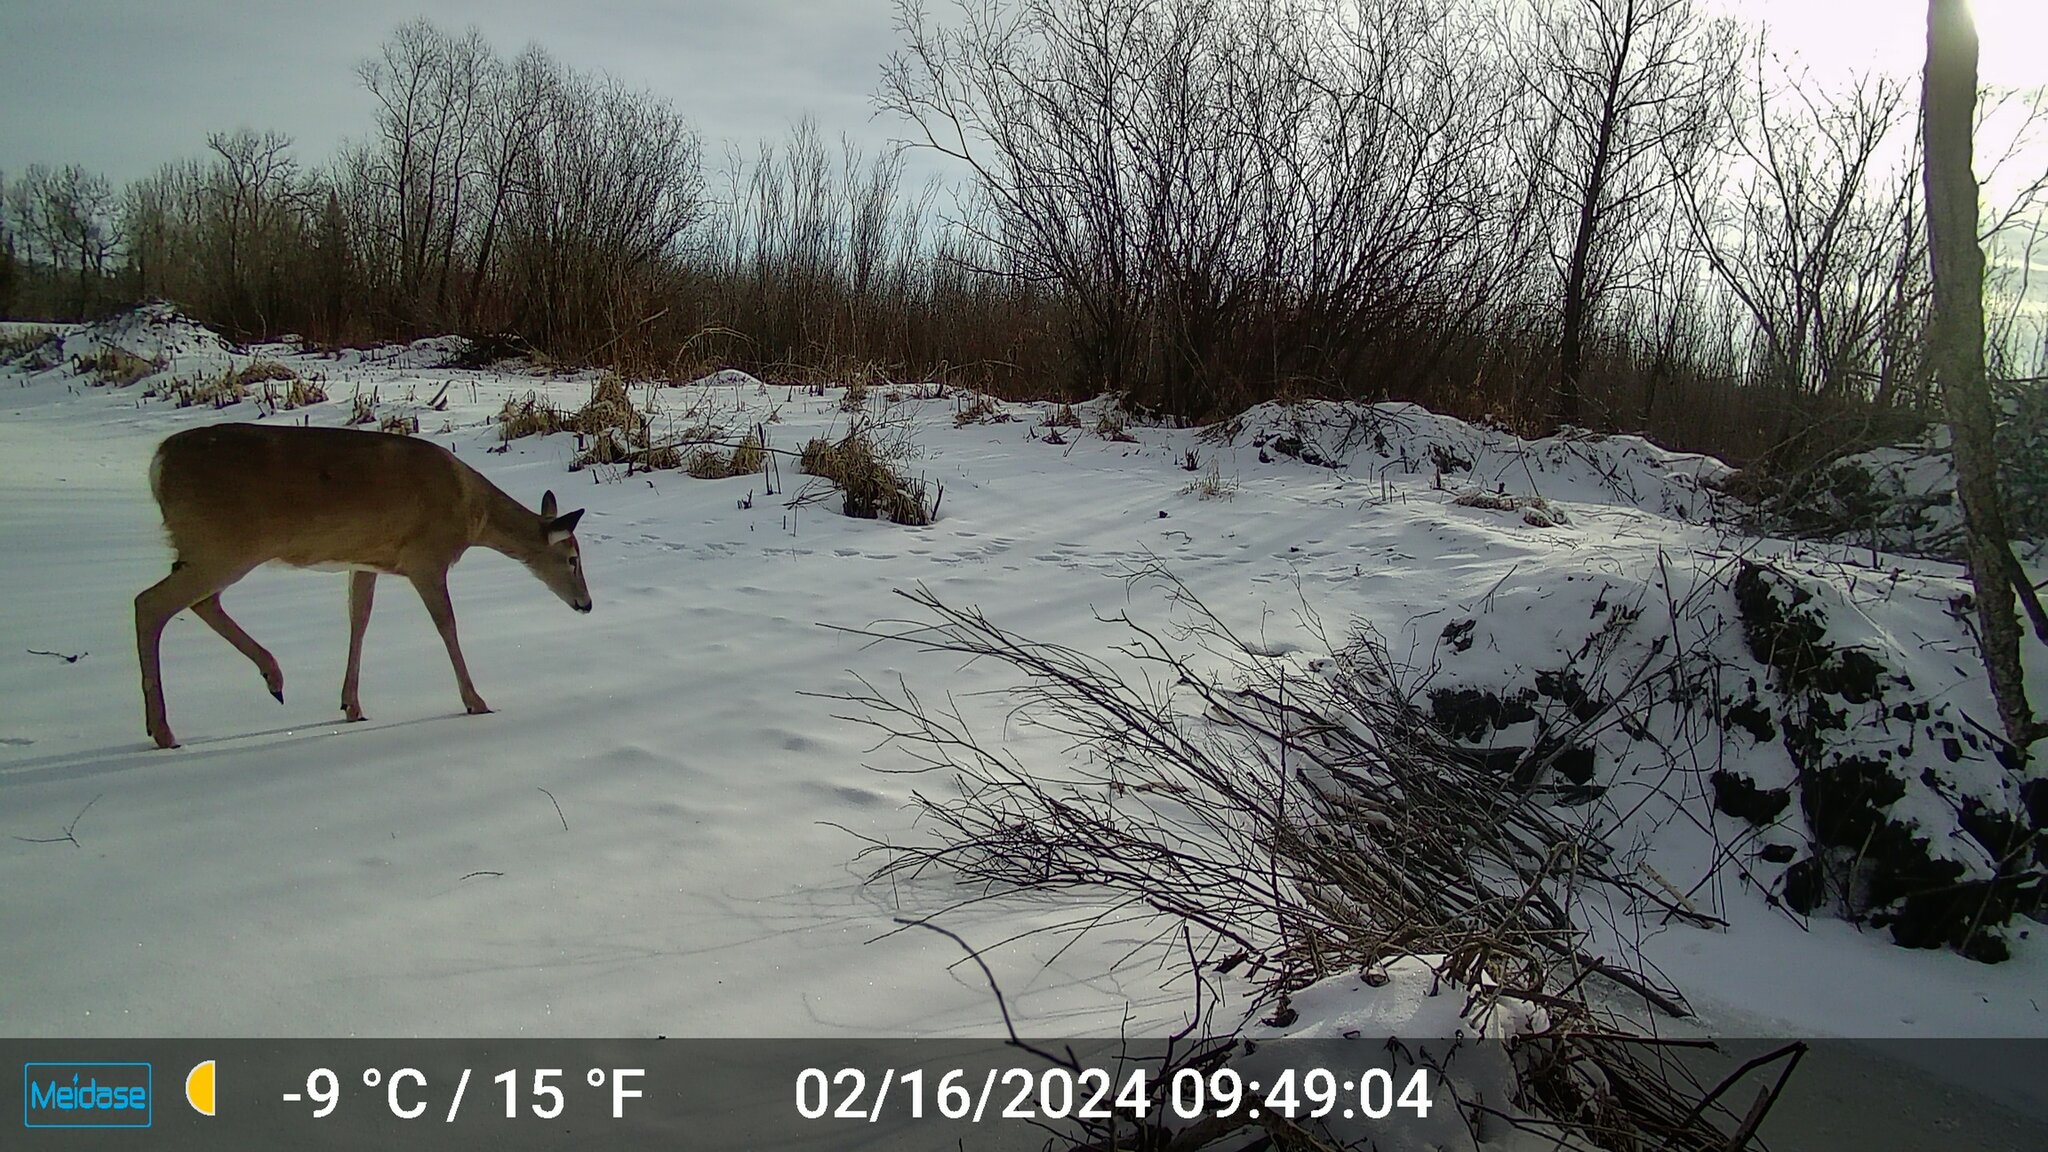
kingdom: Animalia
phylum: Chordata
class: Mammalia
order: Artiodactyla
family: Cervidae
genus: Odocoileus
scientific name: Odocoileus virginianus
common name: White-tailed deer
